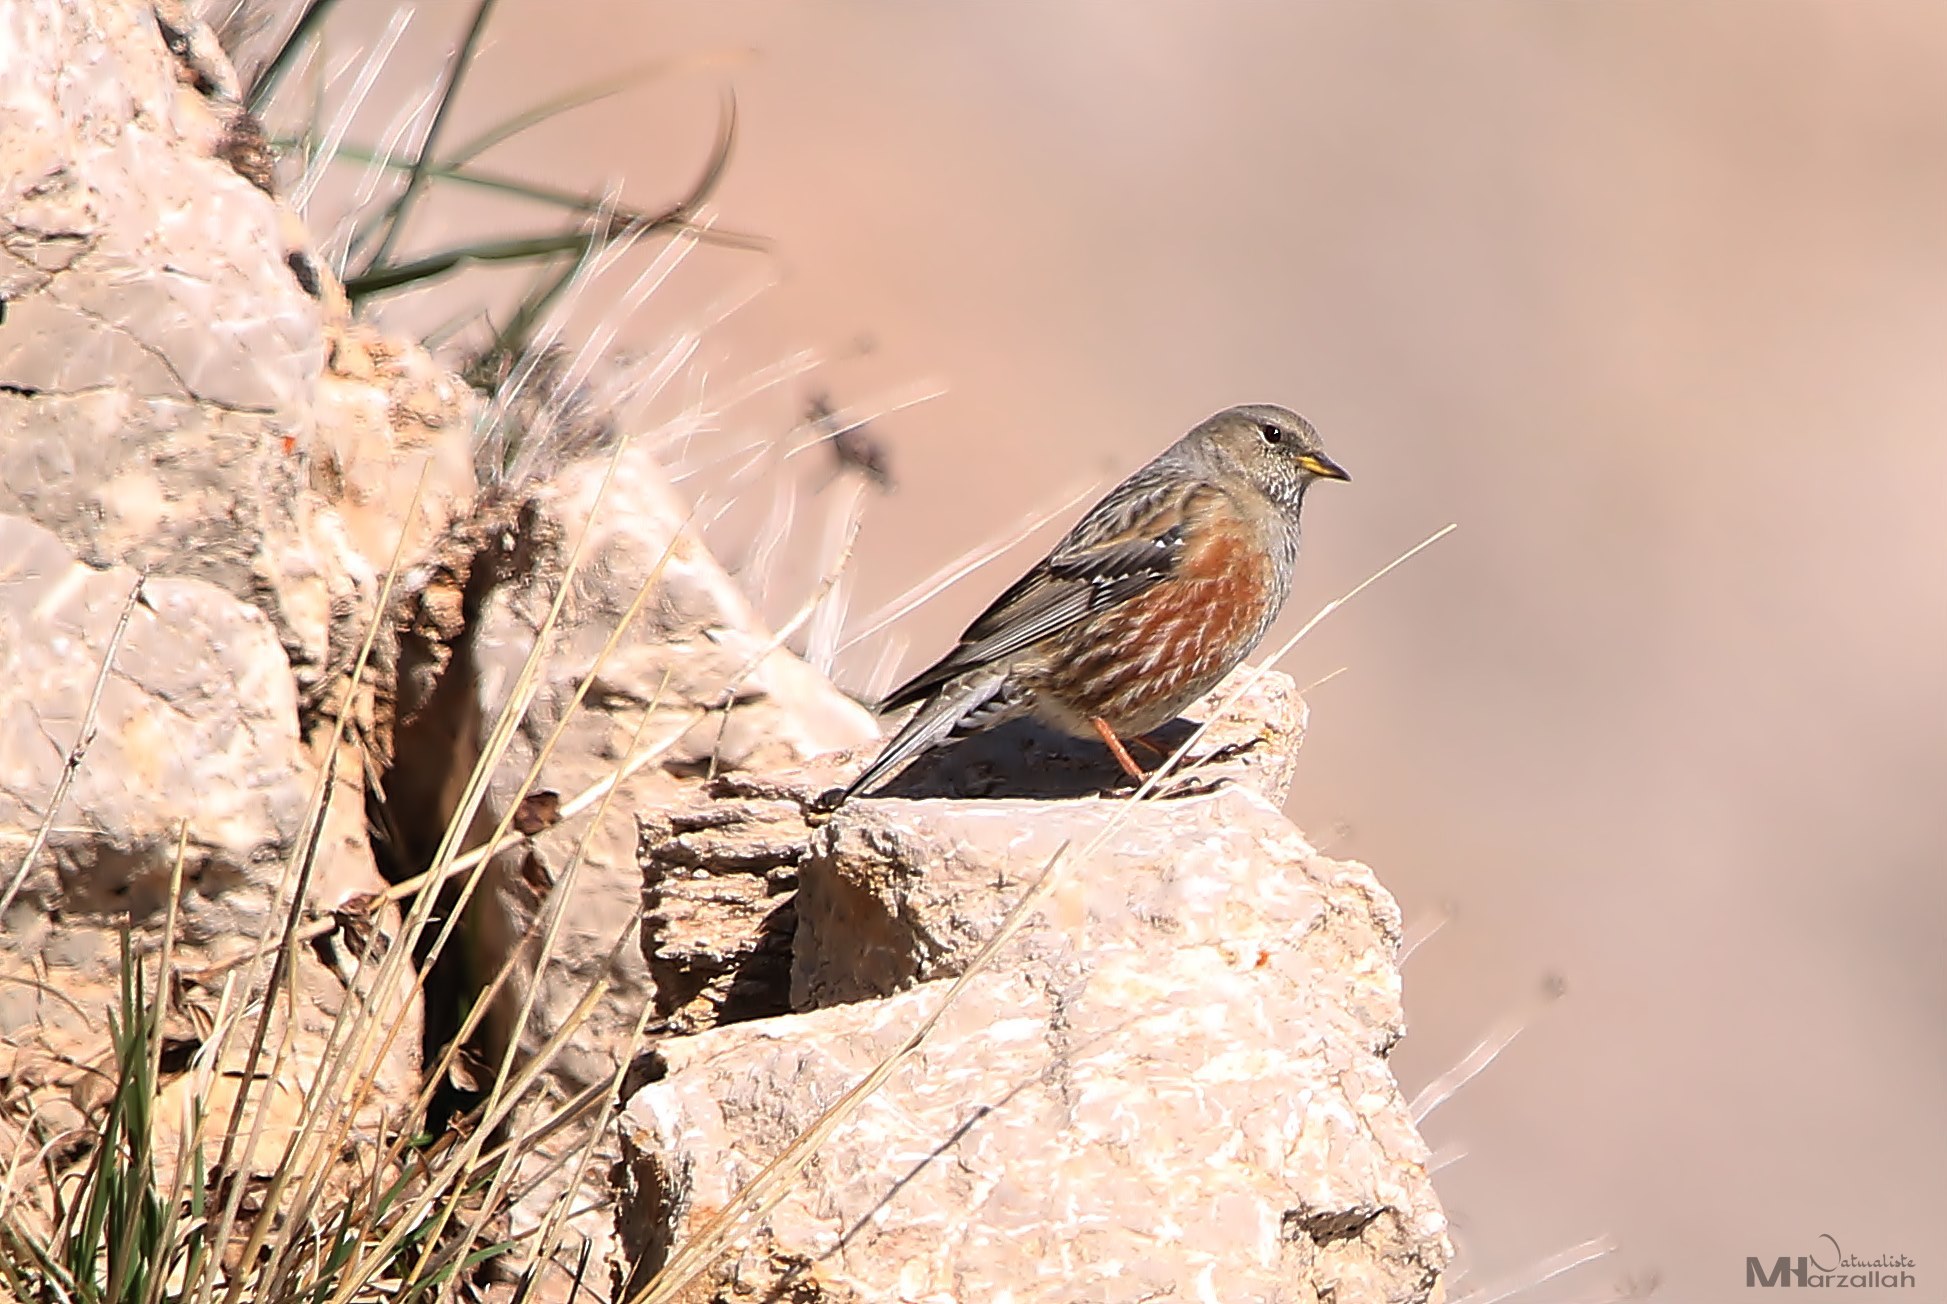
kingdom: Animalia
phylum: Chordata
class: Aves
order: Passeriformes
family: Prunellidae
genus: Prunella
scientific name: Prunella collaris
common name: Alpine accentor
